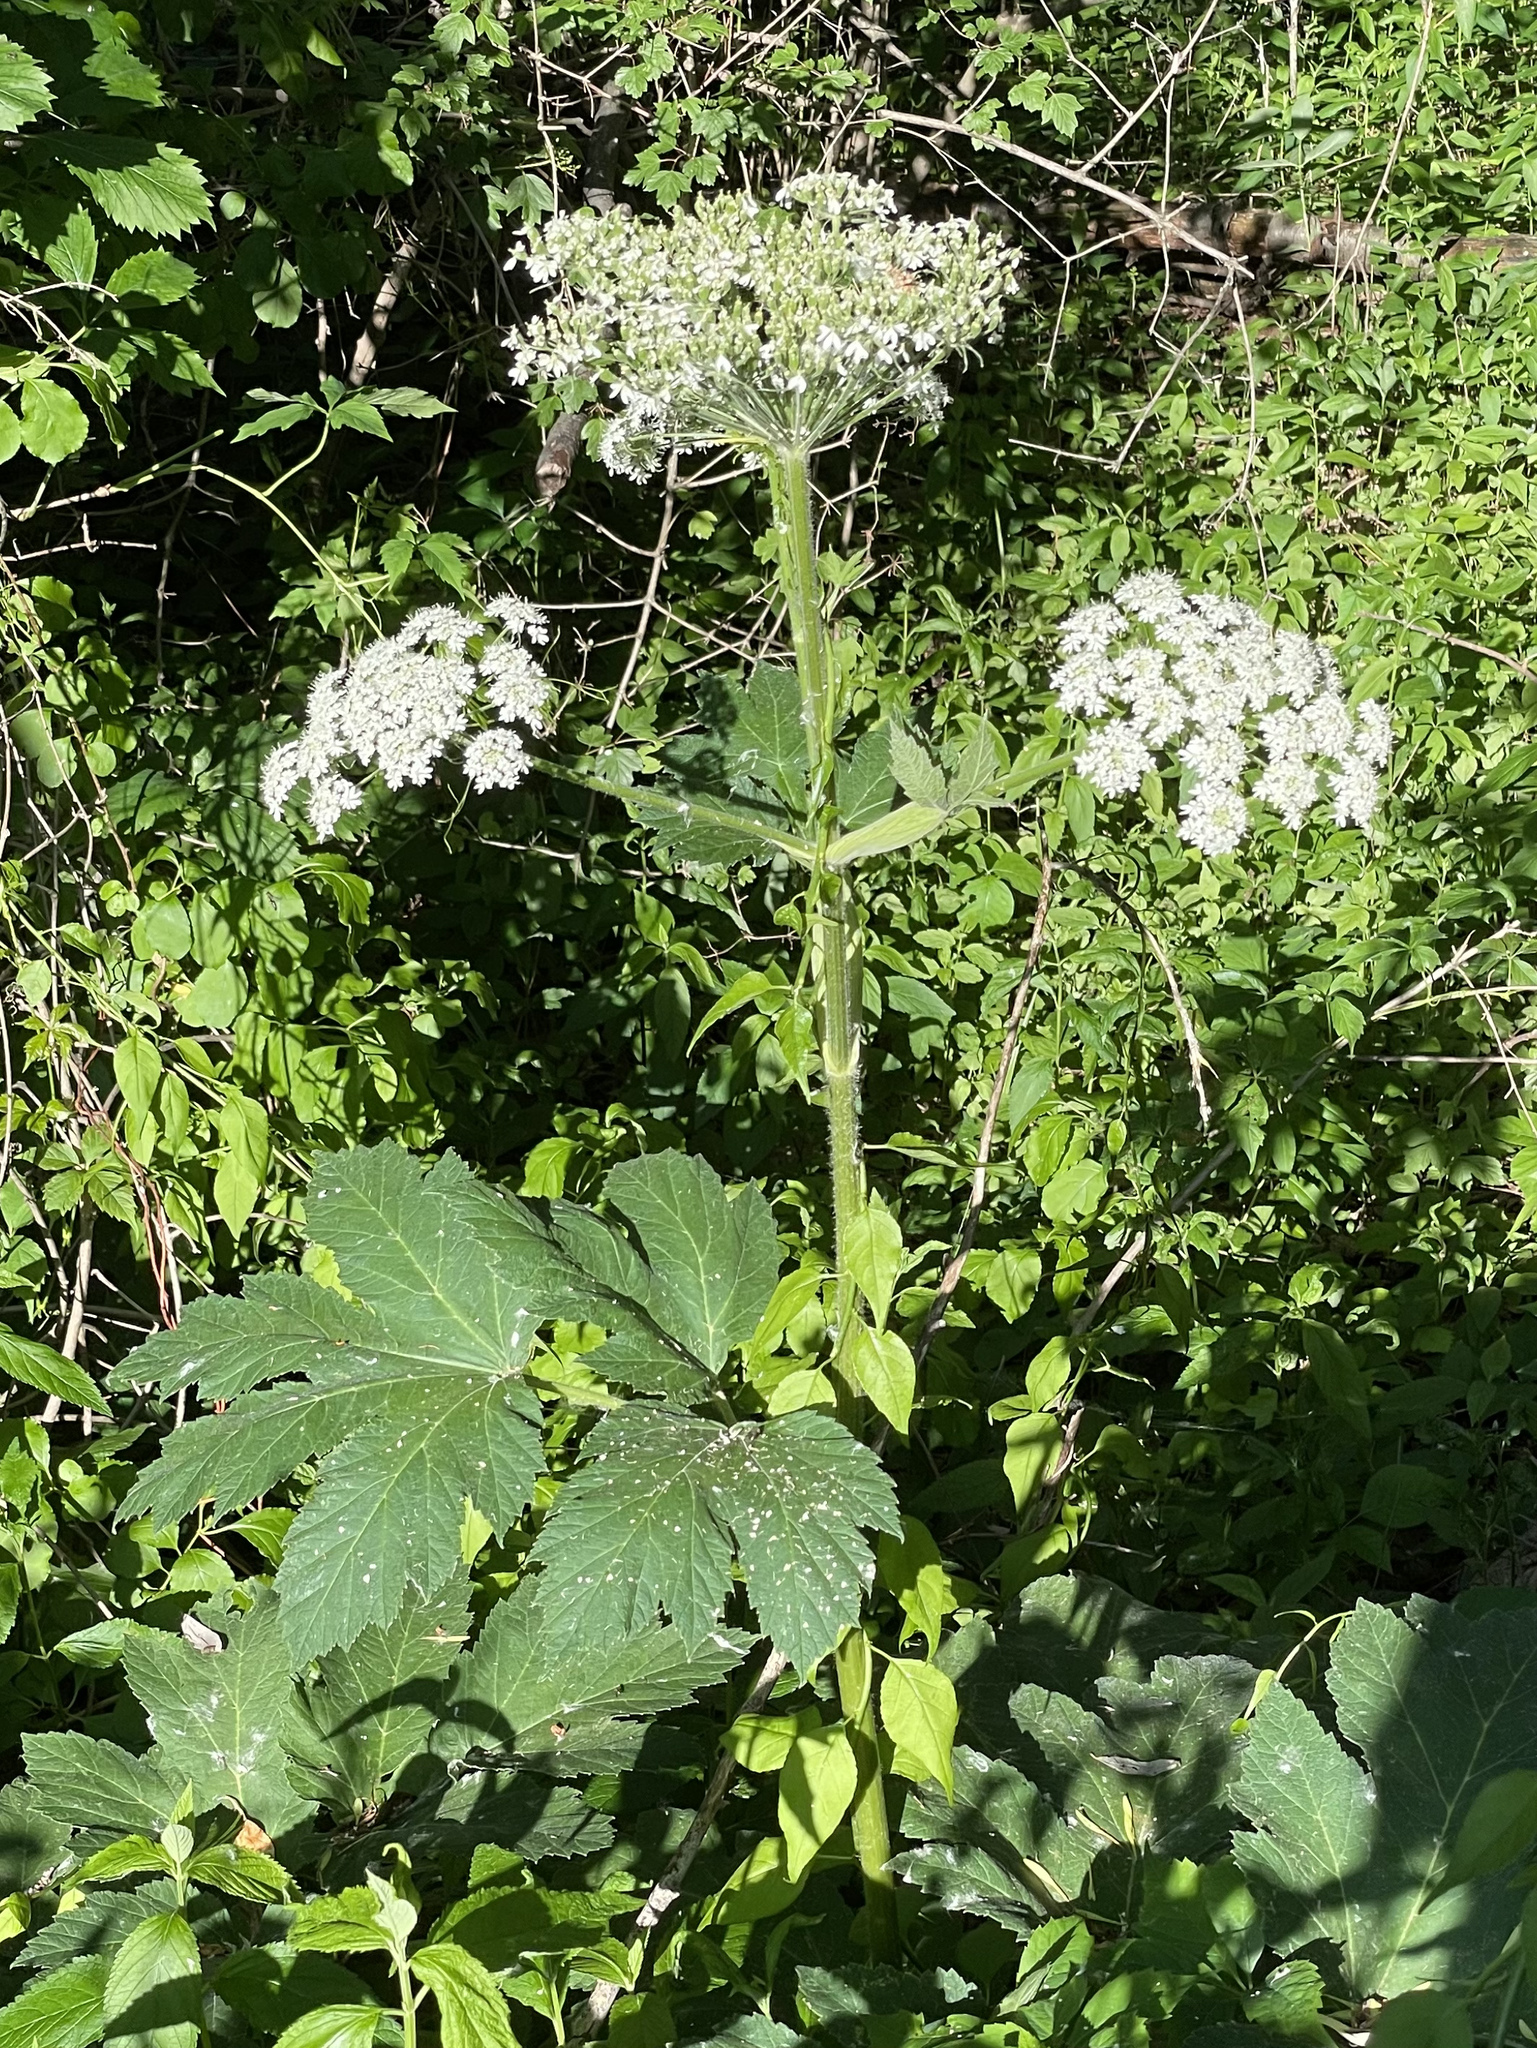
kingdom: Plantae
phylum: Tracheophyta
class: Magnoliopsida
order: Apiales
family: Apiaceae
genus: Heracleum
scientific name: Heracleum maximum
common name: American cow parsnip
